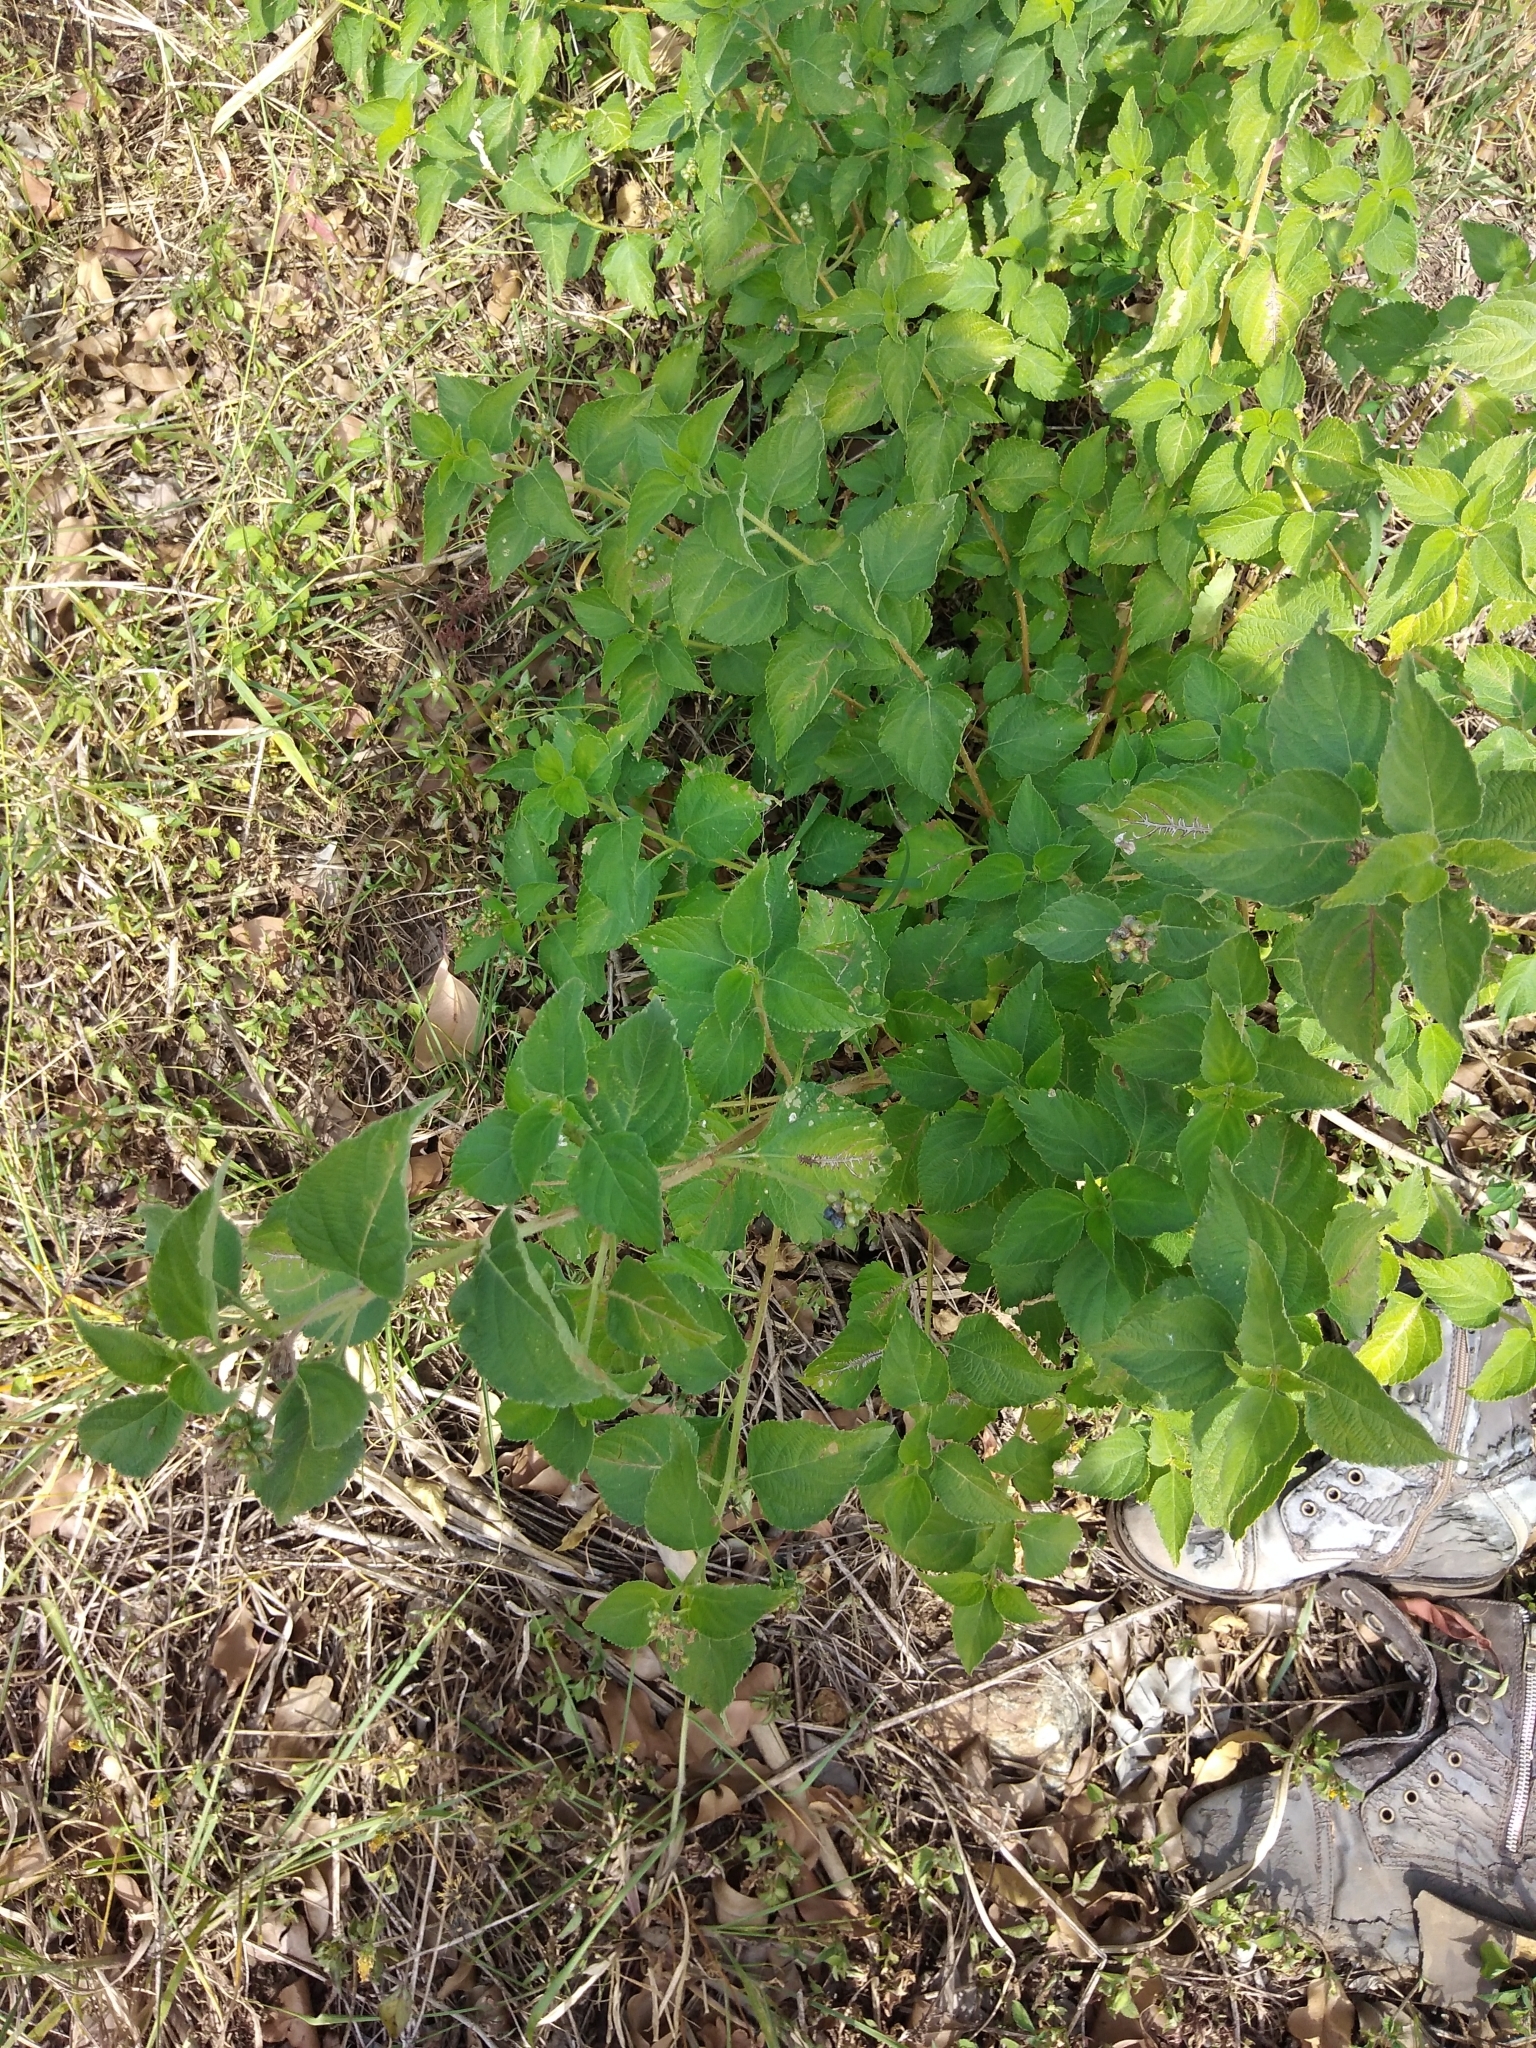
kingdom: Plantae
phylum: Tracheophyta
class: Magnoliopsida
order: Lamiales
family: Verbenaceae
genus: Lantana
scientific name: Lantana camara
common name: Lantana
